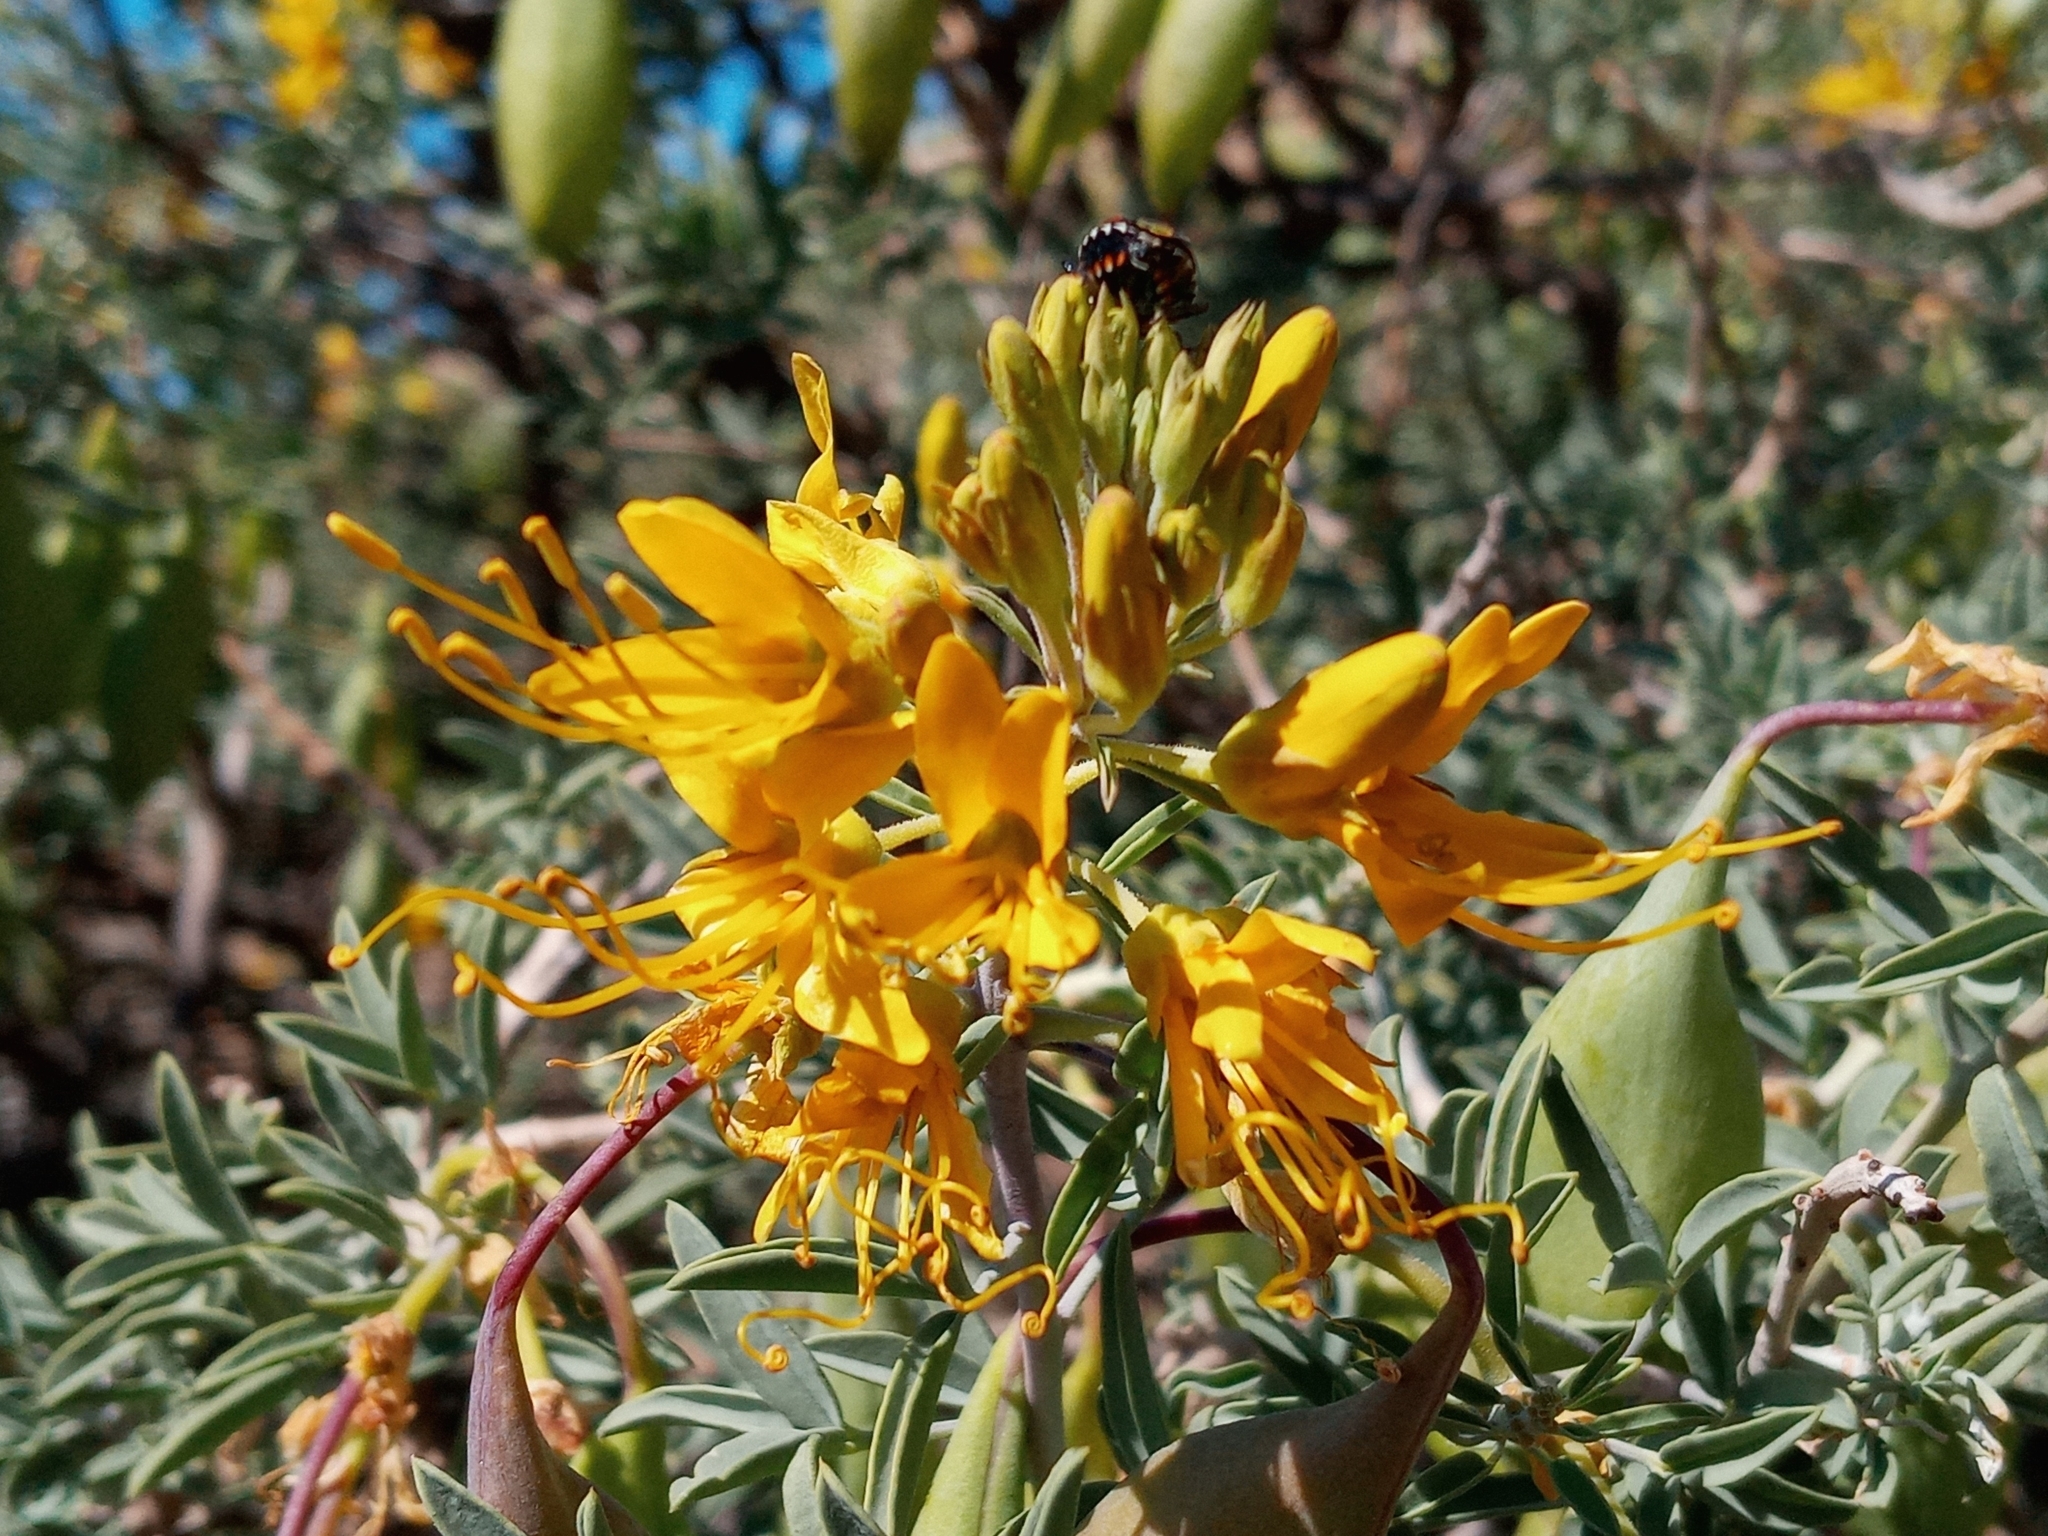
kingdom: Plantae
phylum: Tracheophyta
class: Magnoliopsida
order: Brassicales
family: Cleomaceae
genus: Cleomella
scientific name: Cleomella arborea
